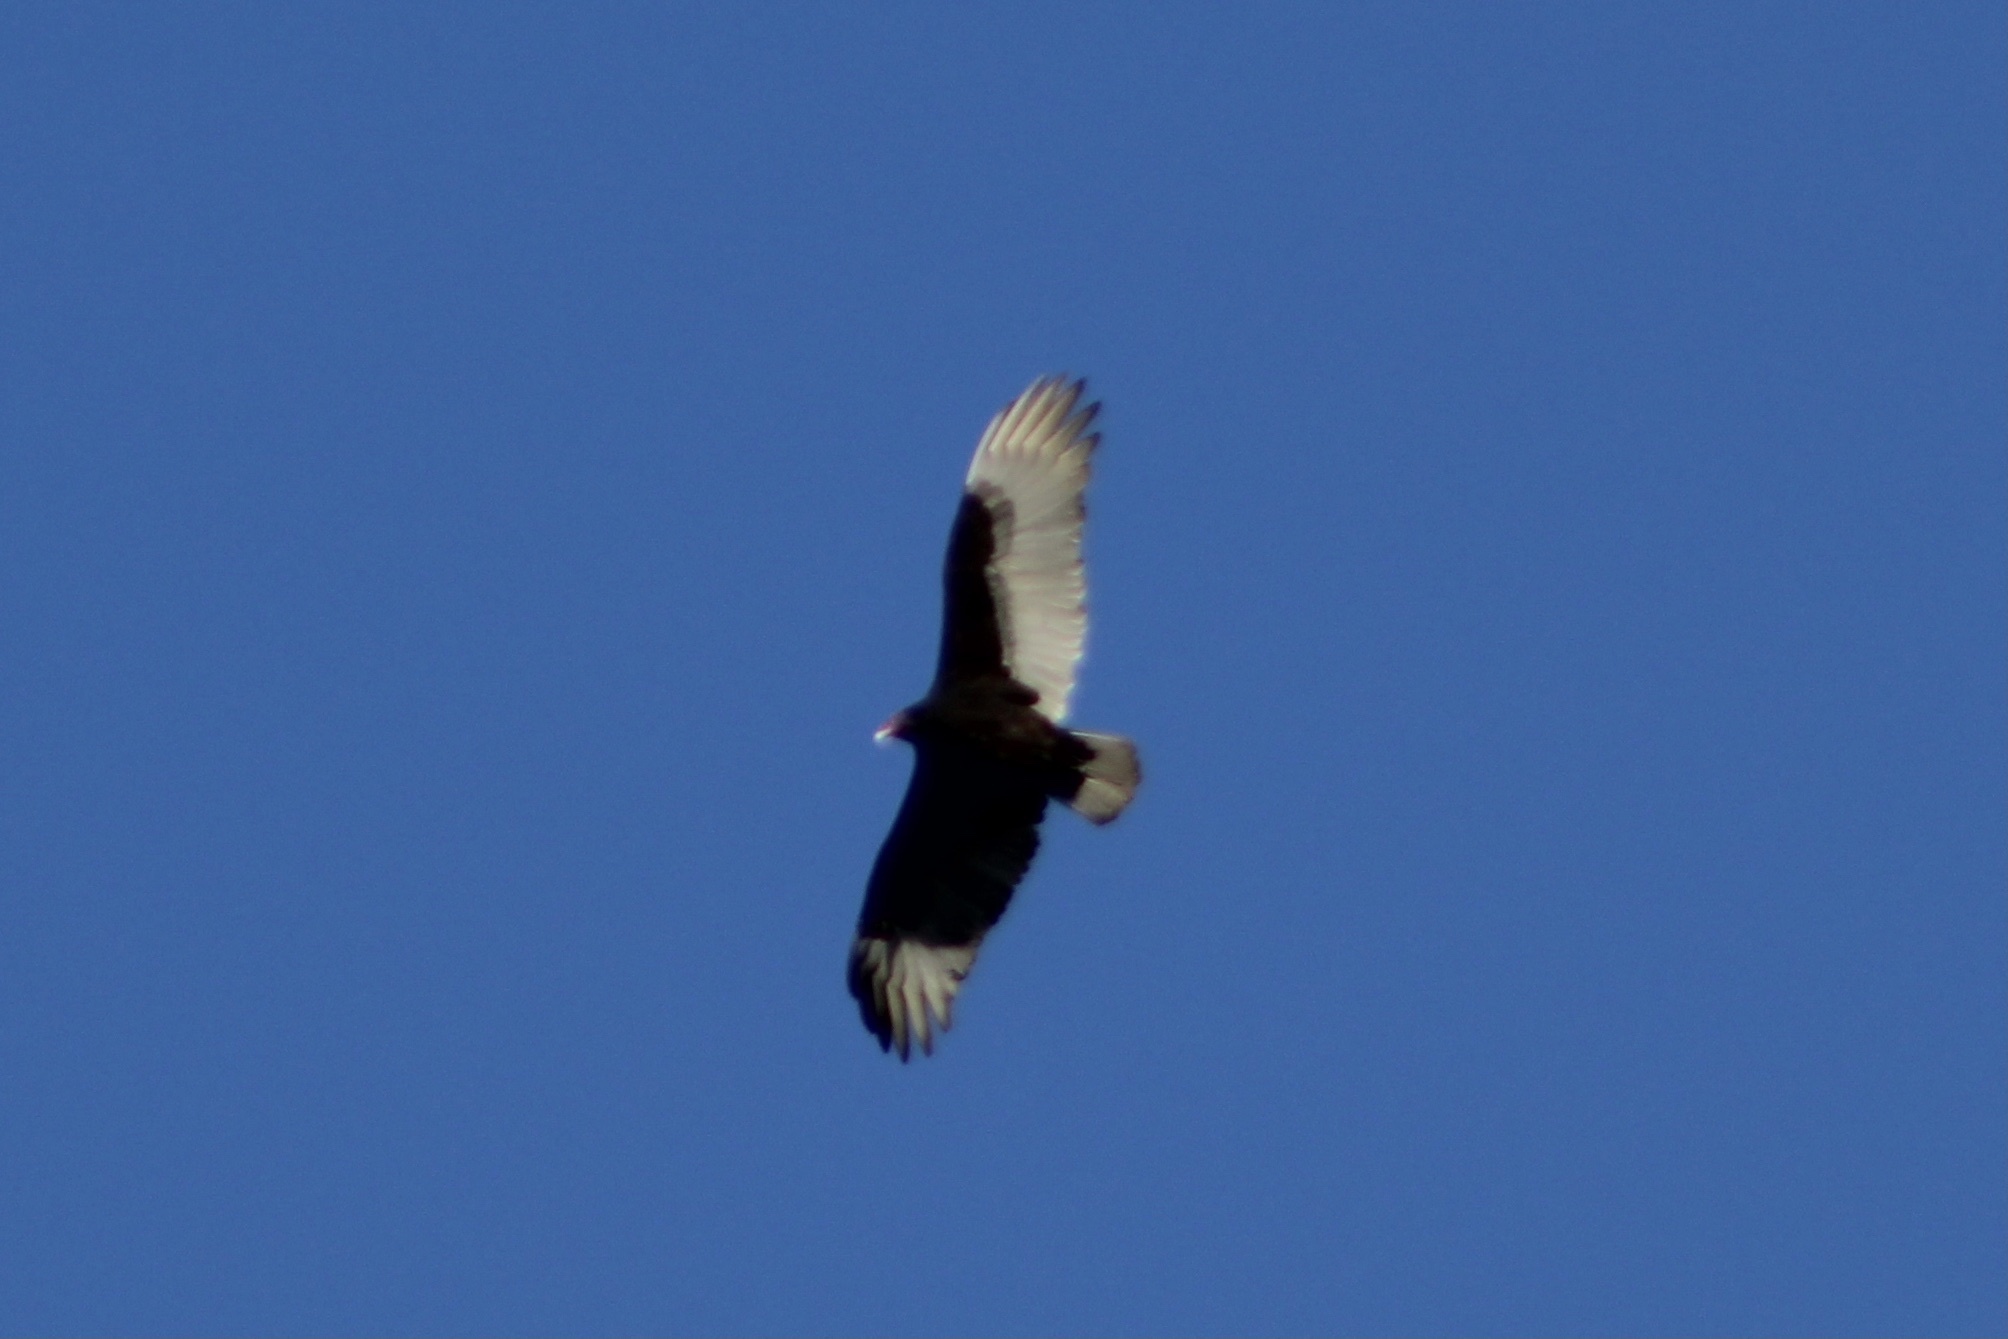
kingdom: Animalia
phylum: Chordata
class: Aves
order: Accipitriformes
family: Cathartidae
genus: Cathartes
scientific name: Cathartes aura
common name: Turkey vulture
